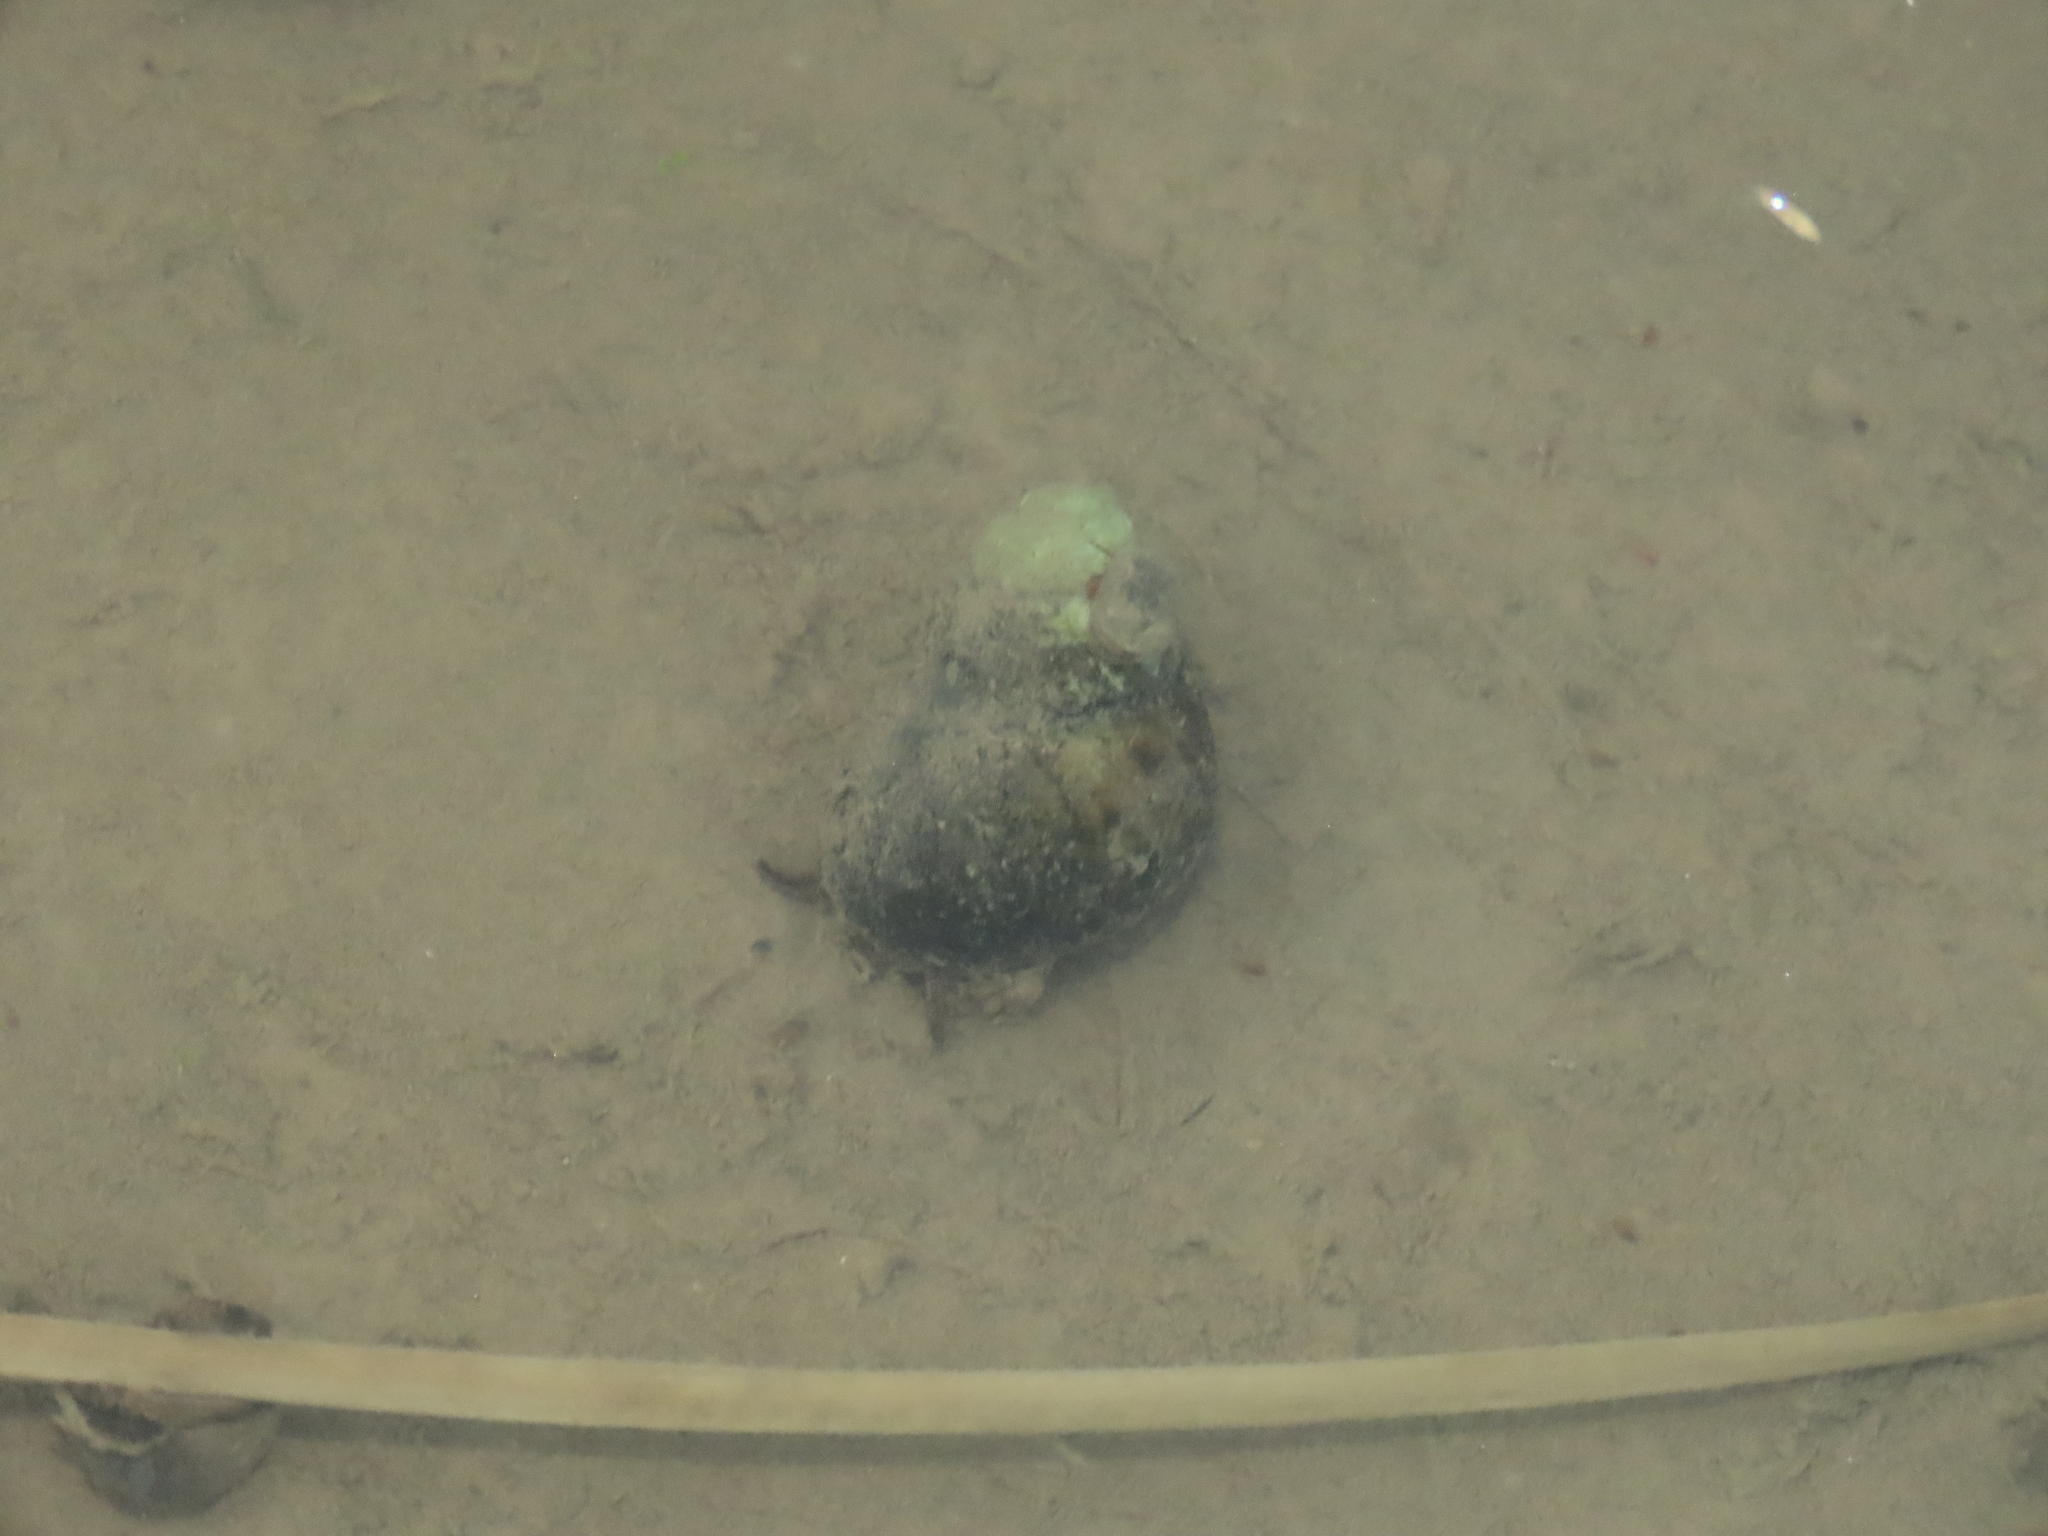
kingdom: Animalia
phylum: Mollusca
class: Gastropoda
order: Architaenioglossa
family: Viviparidae
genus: Sinotaia
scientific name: Sinotaia quadrata
